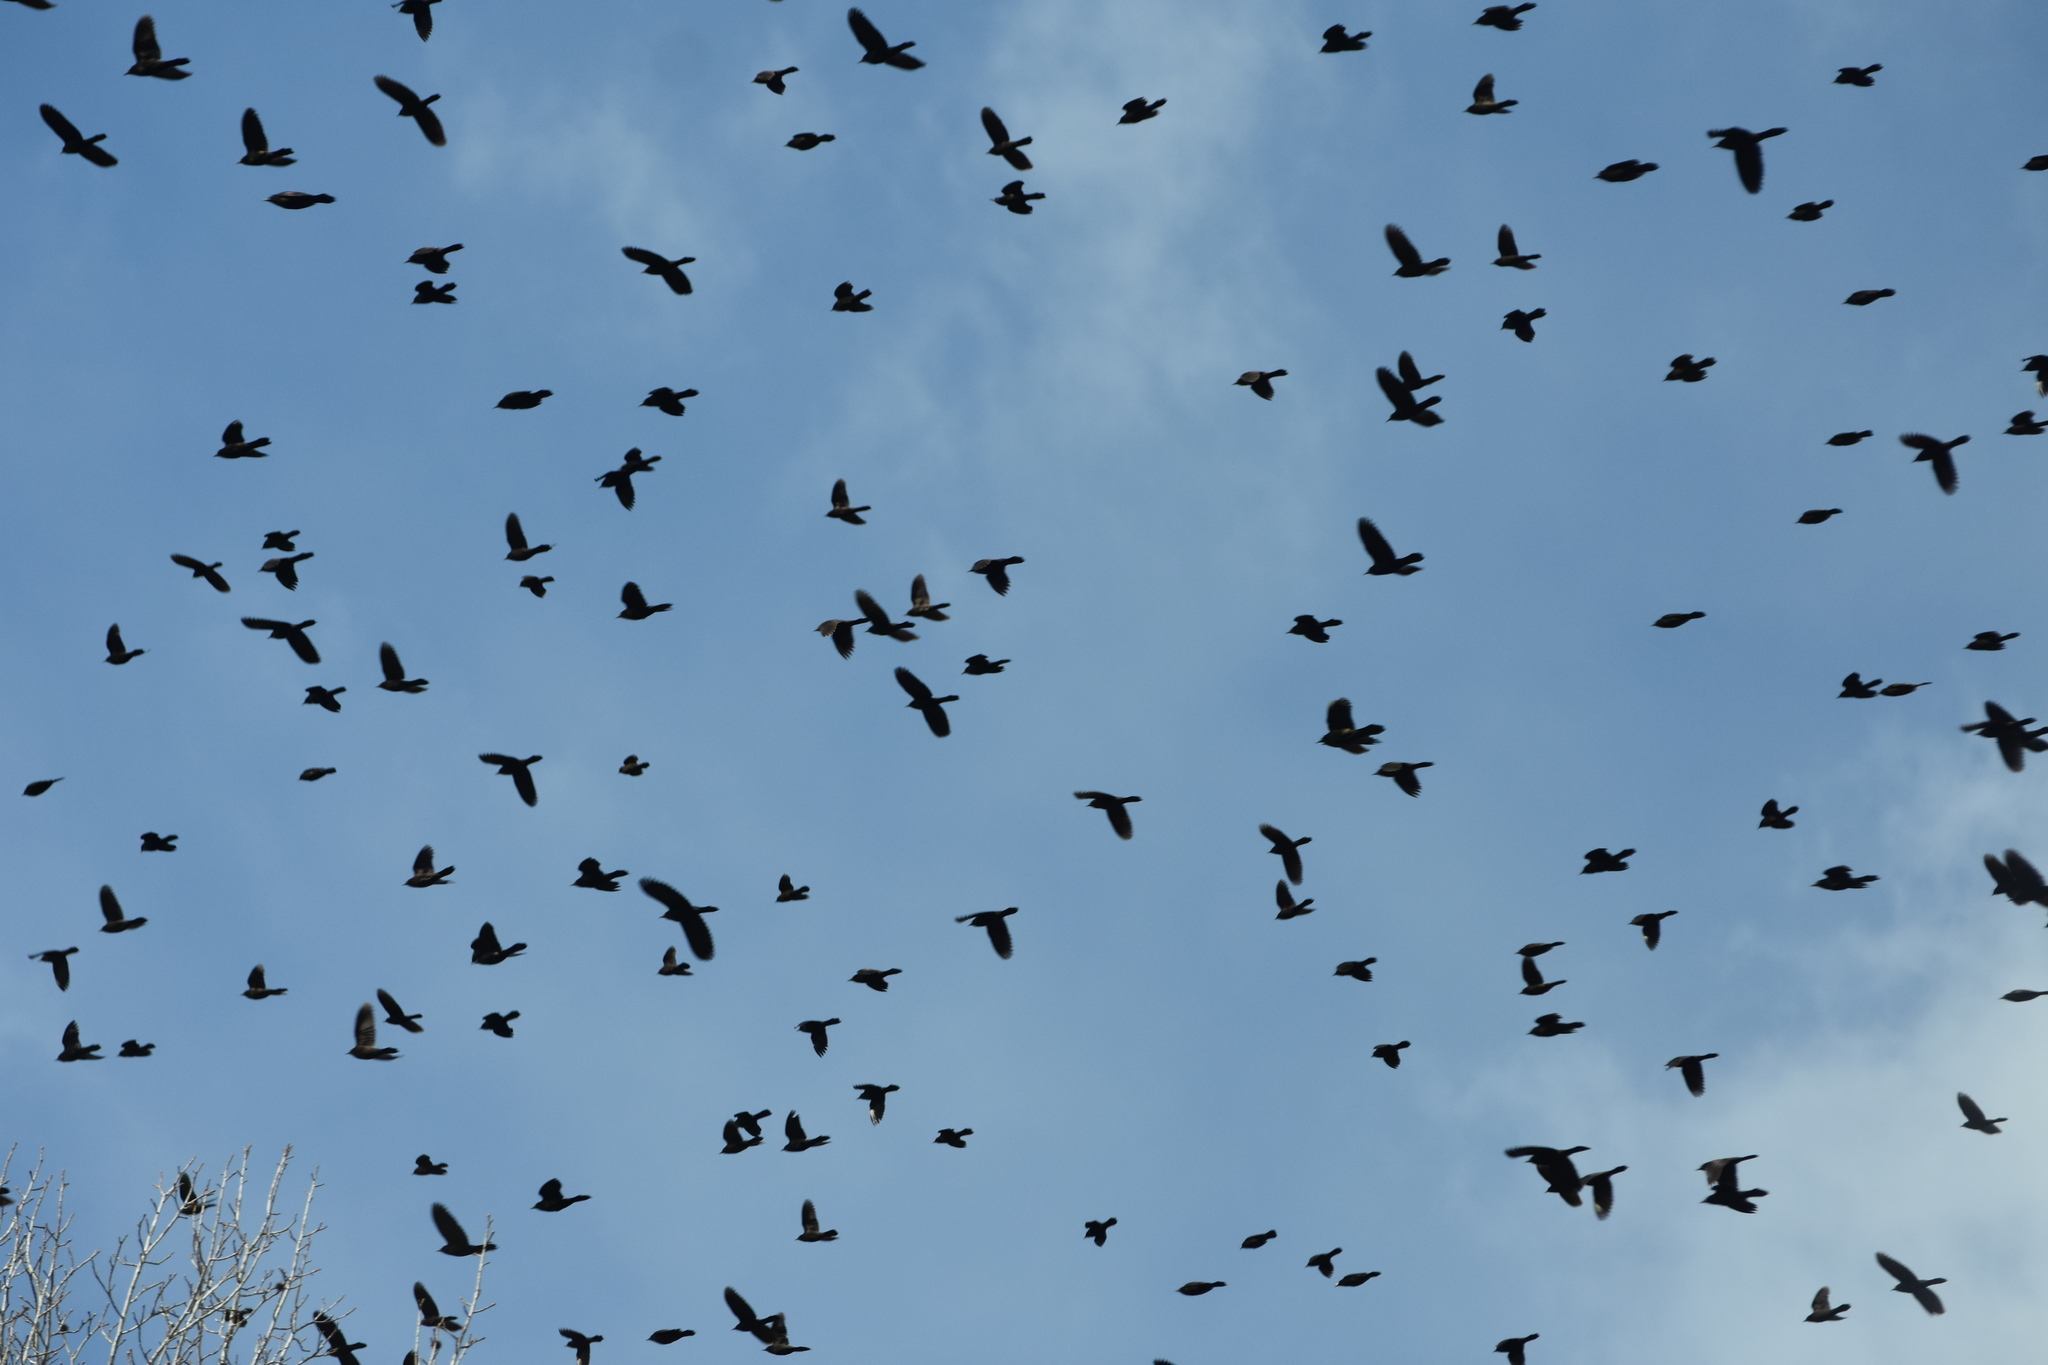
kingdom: Animalia
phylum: Chordata
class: Aves
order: Passeriformes
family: Icteridae
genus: Quiscalus
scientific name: Quiscalus quiscula
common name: Common grackle
